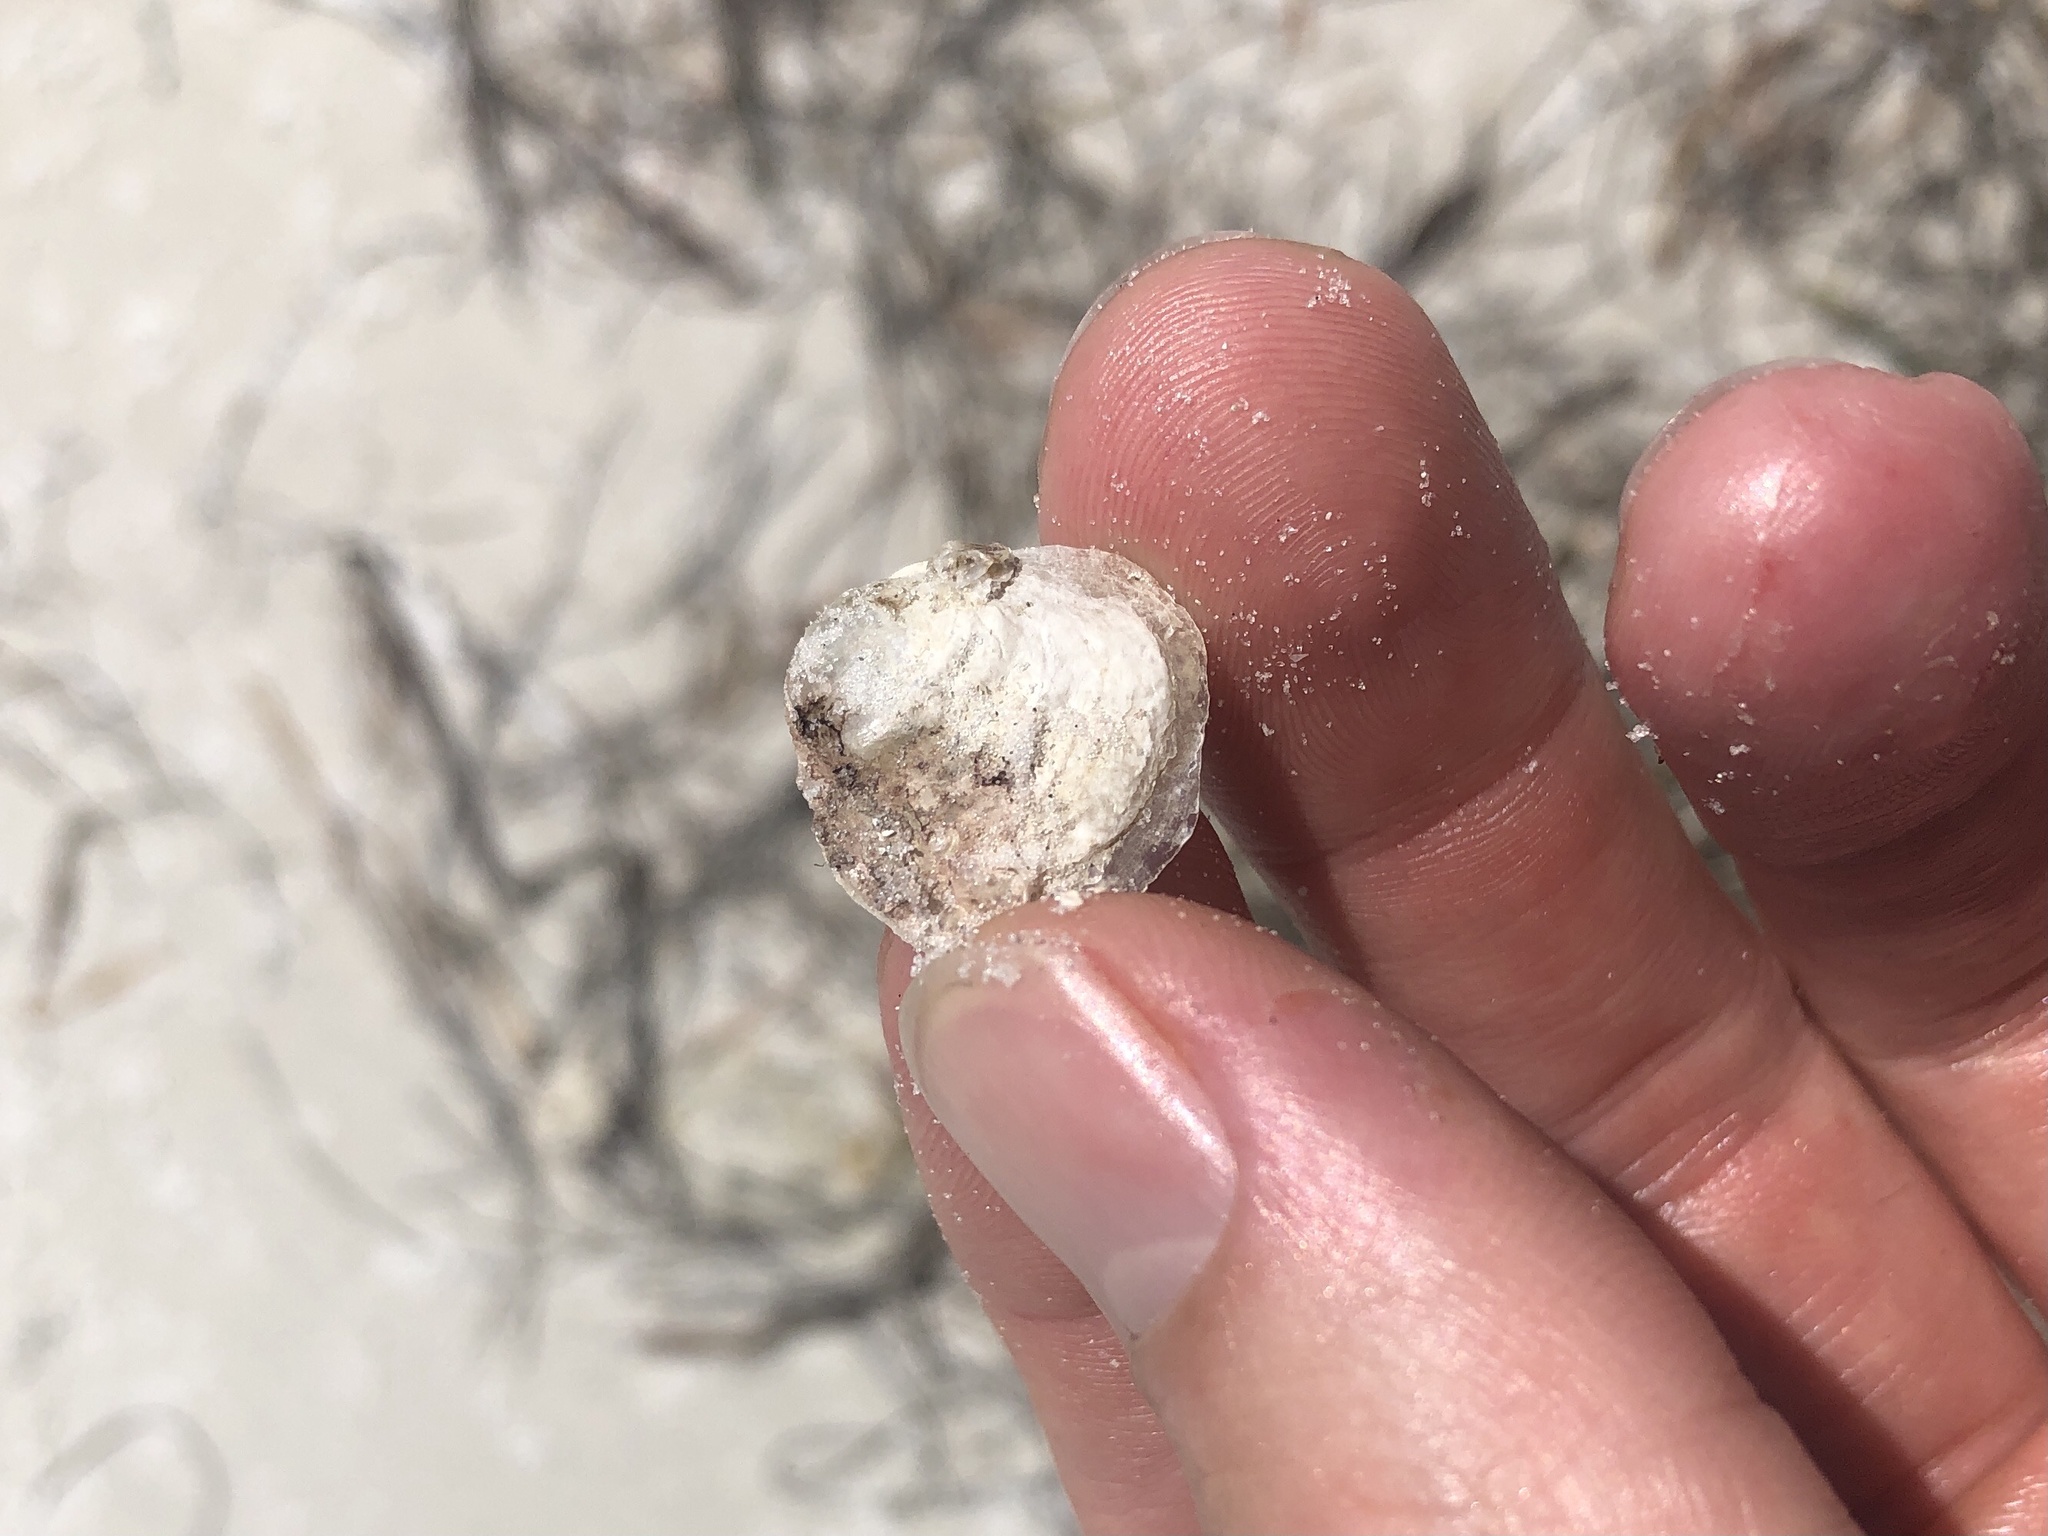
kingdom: Animalia
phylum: Mollusca
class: Bivalvia
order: Pectinida
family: Anomiidae
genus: Anomia
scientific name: Anomia simplex
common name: Common jingle shell
